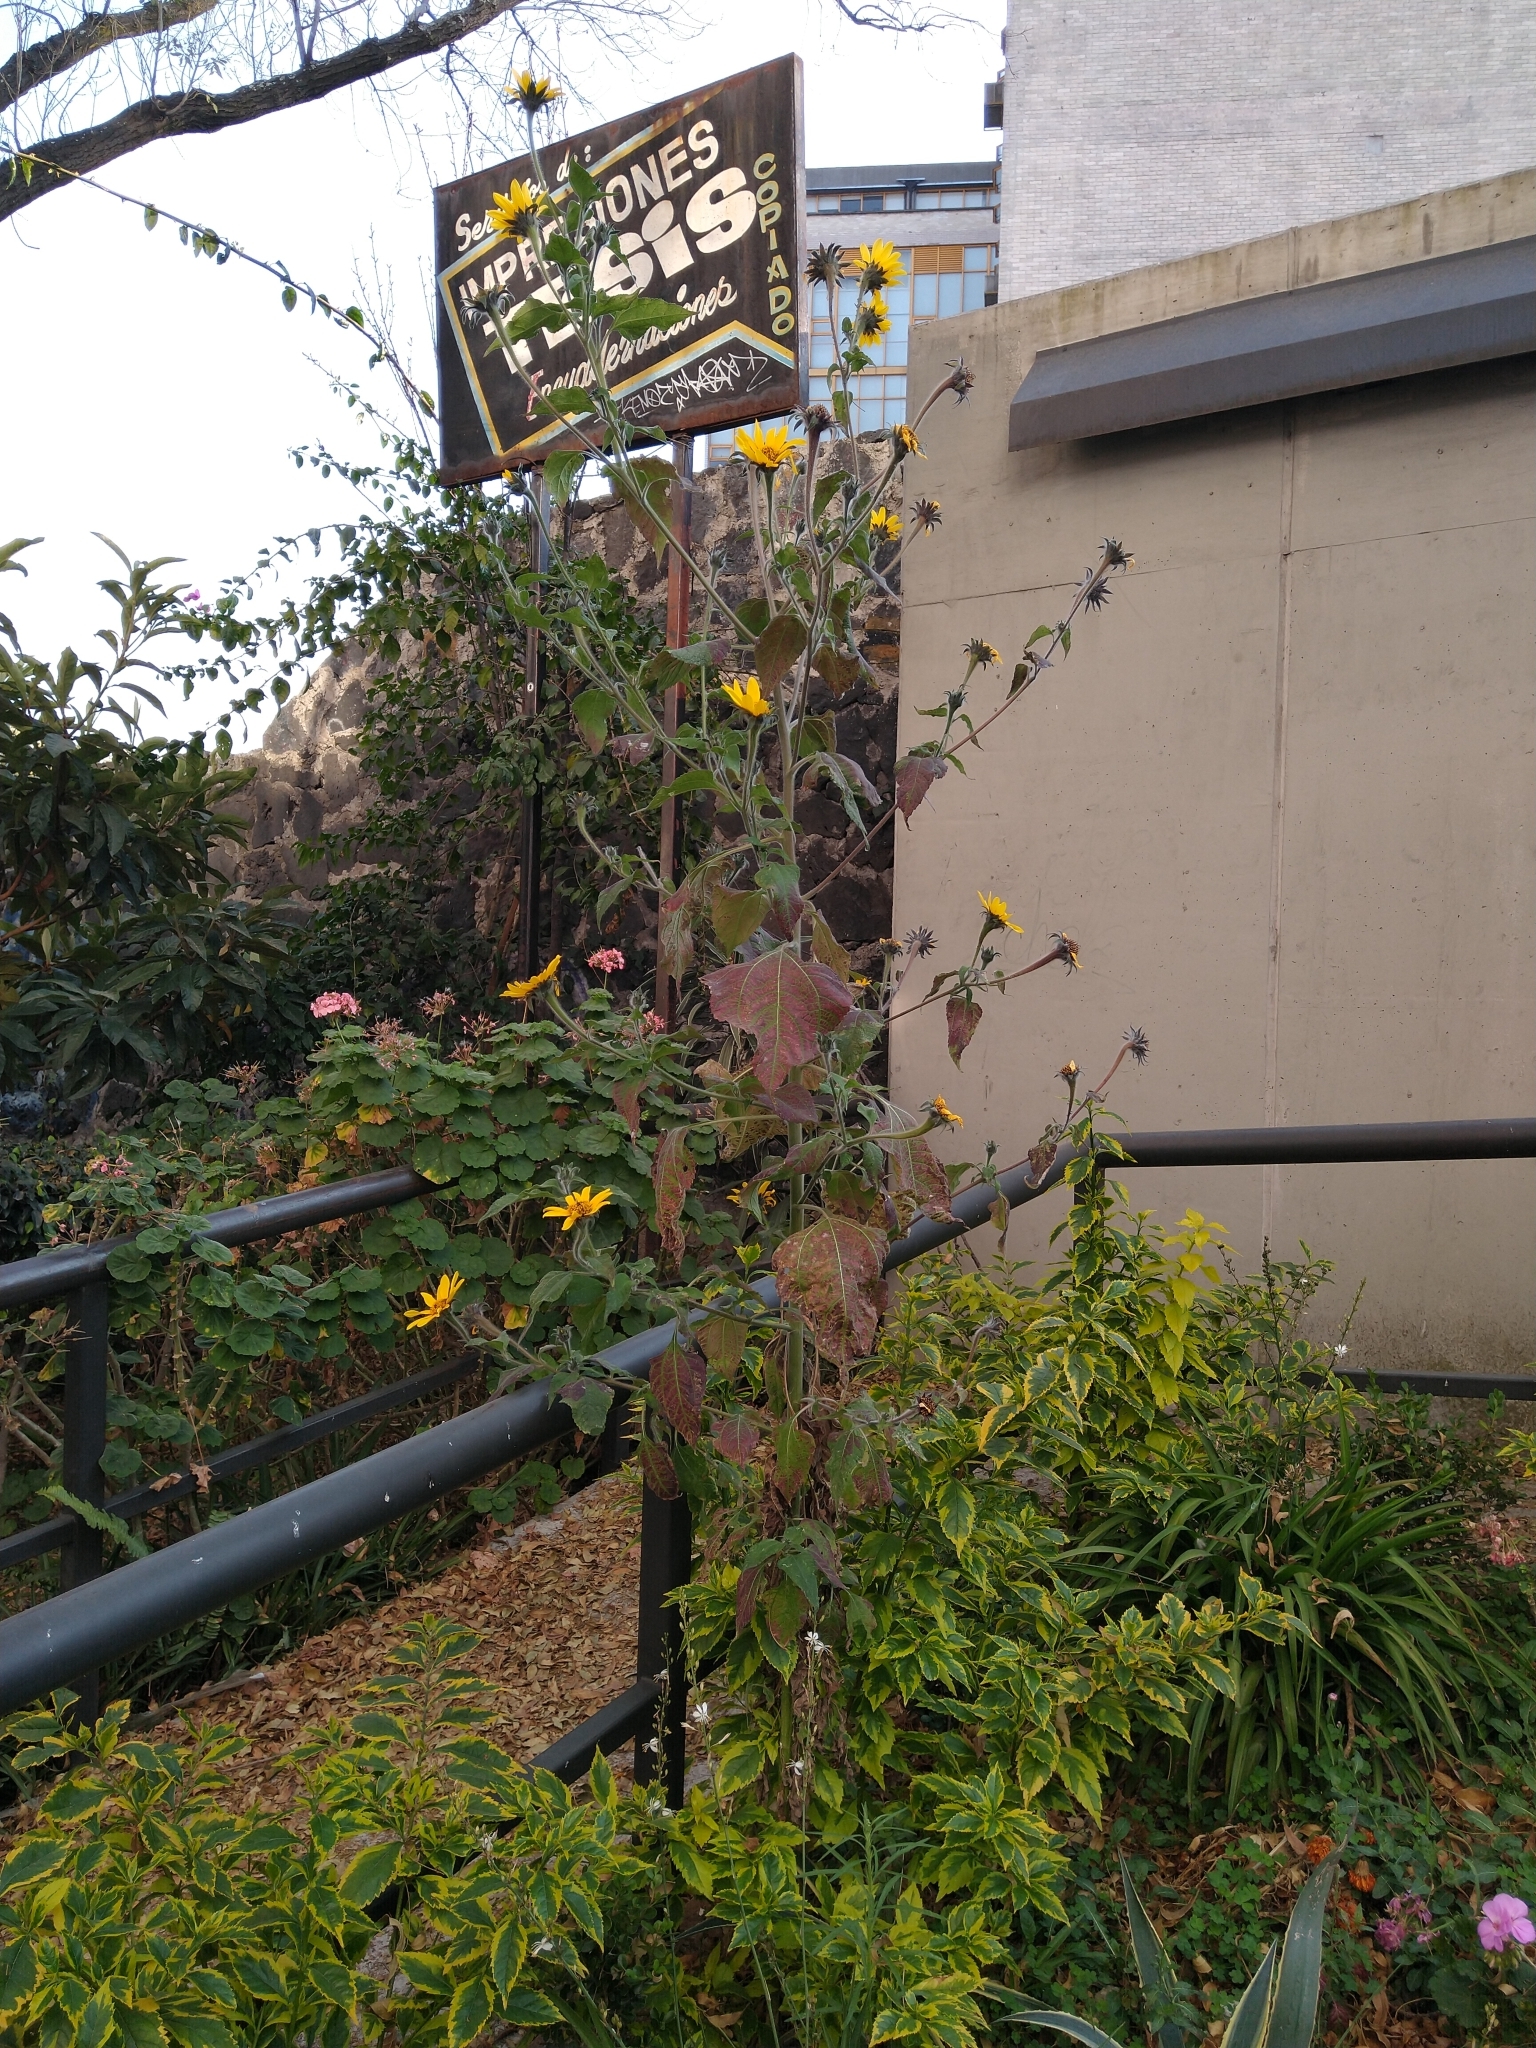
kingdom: Plantae
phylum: Tracheophyta
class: Magnoliopsida
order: Asterales
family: Asteraceae
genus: Tithonia
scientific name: Tithonia tubaeformis
